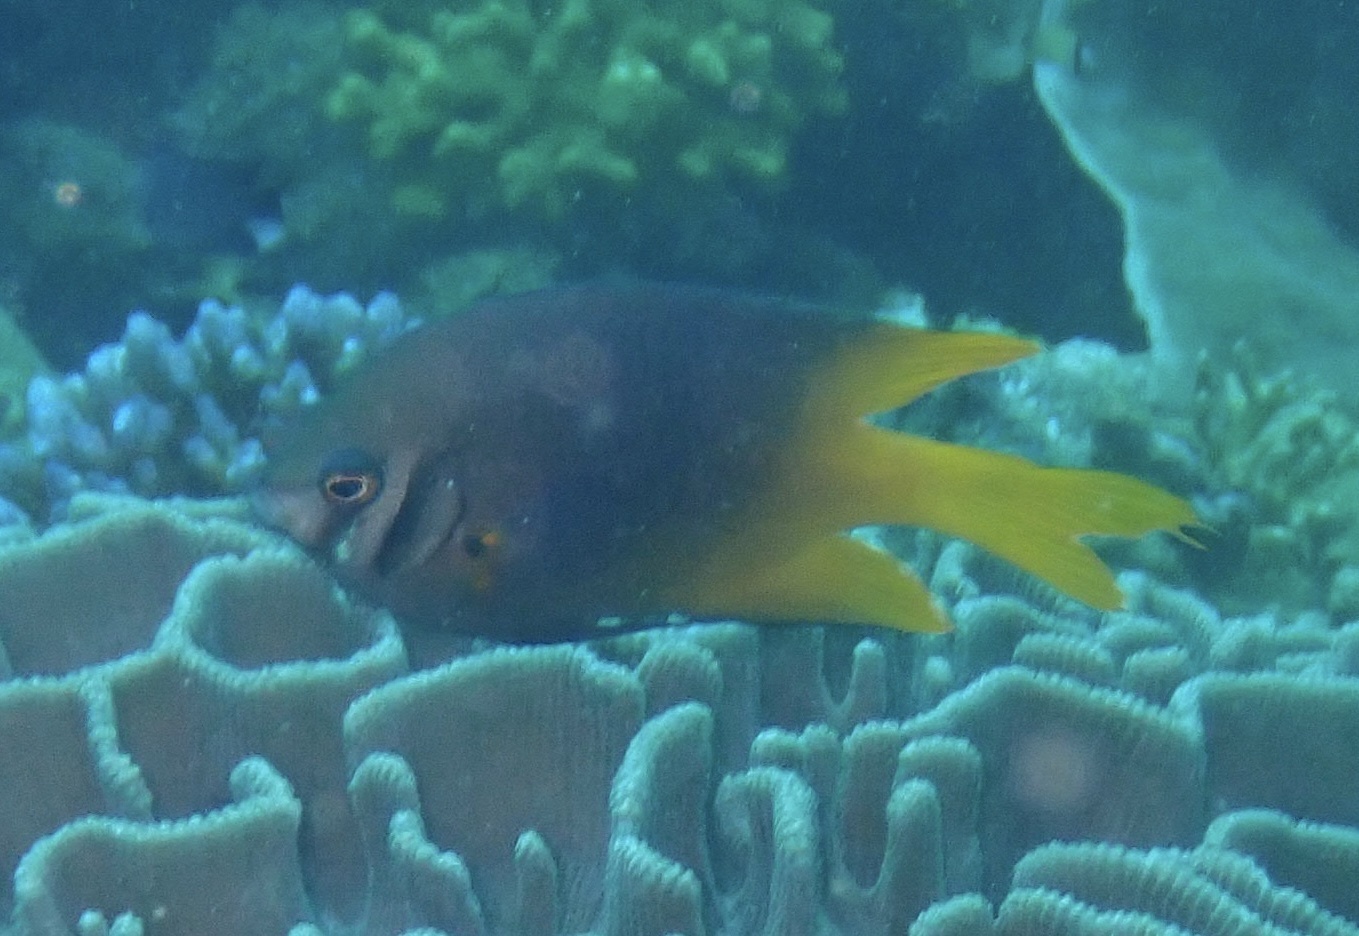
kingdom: Animalia
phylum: Chordata
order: Perciformes
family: Pomacentridae
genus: Neoglyphidodon
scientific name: Neoglyphidodon nigroris
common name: Behn's damsel
